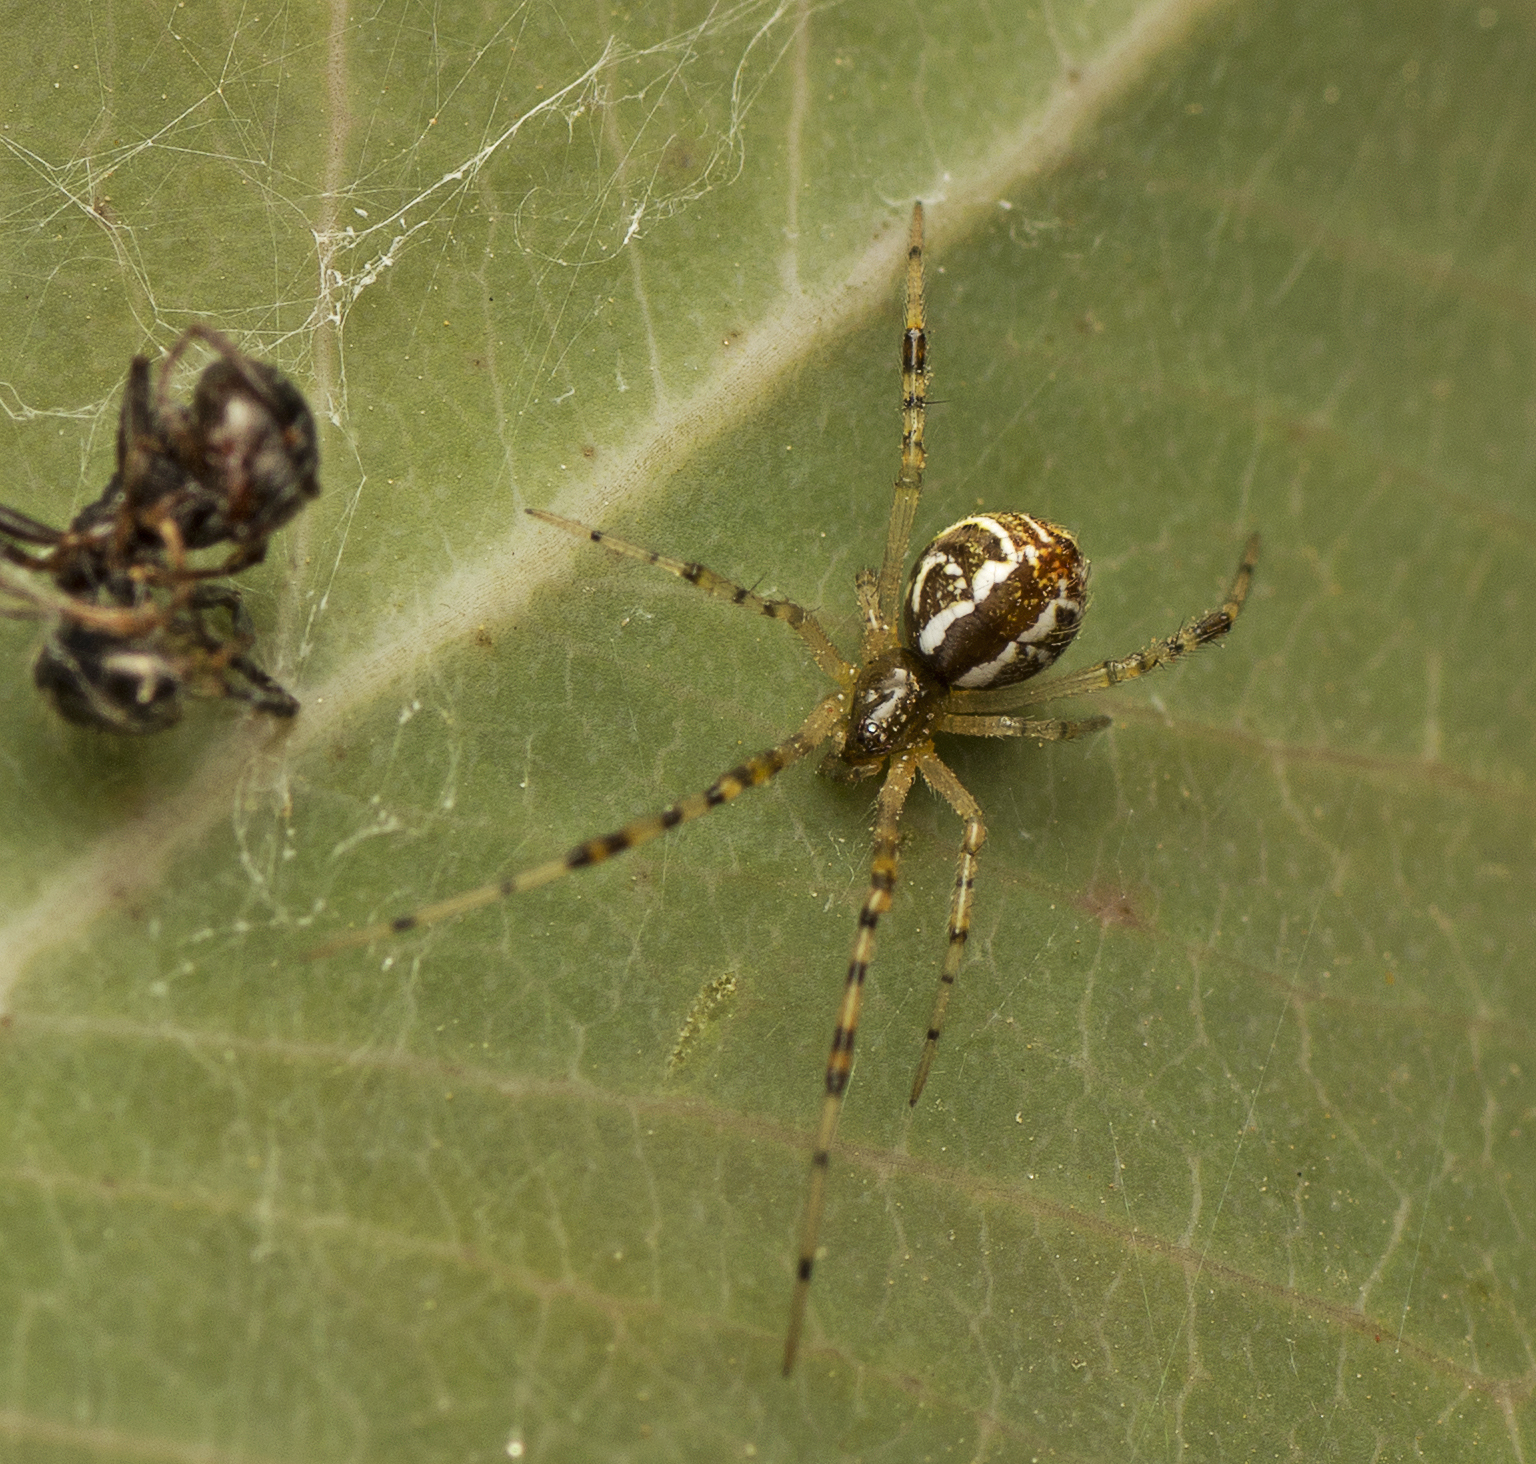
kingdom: Animalia
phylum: Arthropoda
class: Arachnida
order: Araneae
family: Theridiidae
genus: Theridion
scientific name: Theridion pyramidale
